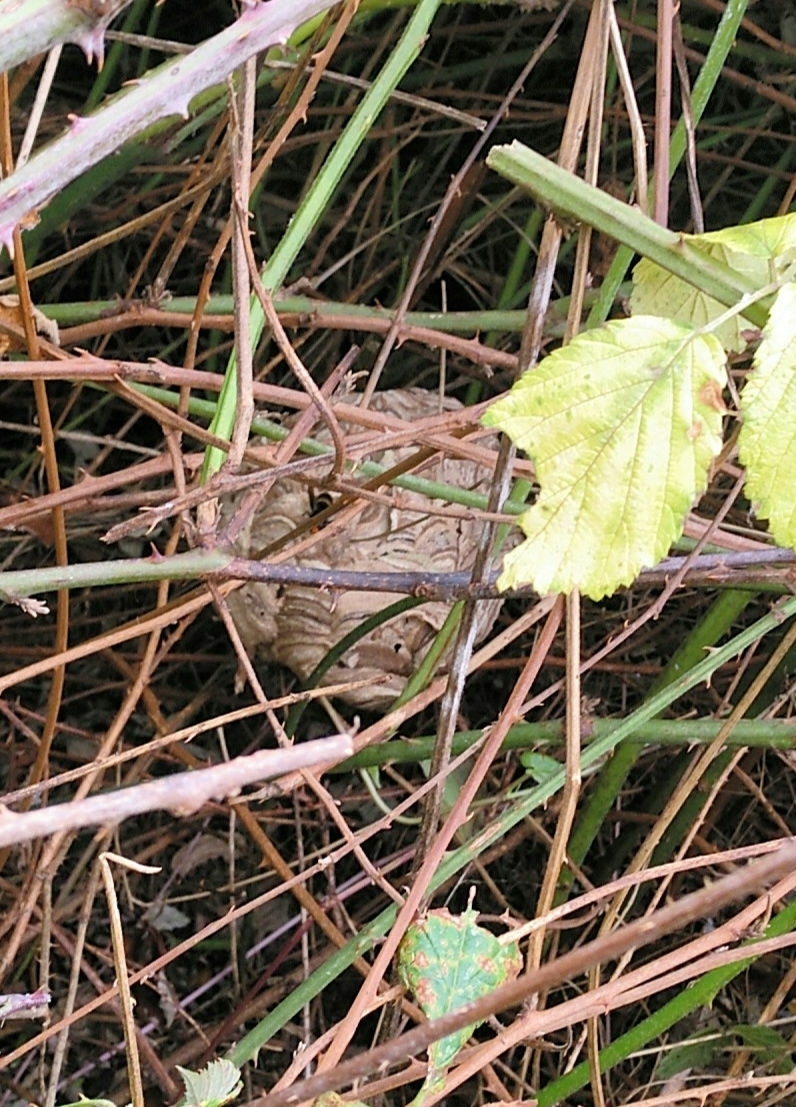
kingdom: Animalia
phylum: Arthropoda
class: Insecta
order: Hymenoptera
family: Vespidae
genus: Vespa
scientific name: Vespa velutina
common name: Asian hornet
